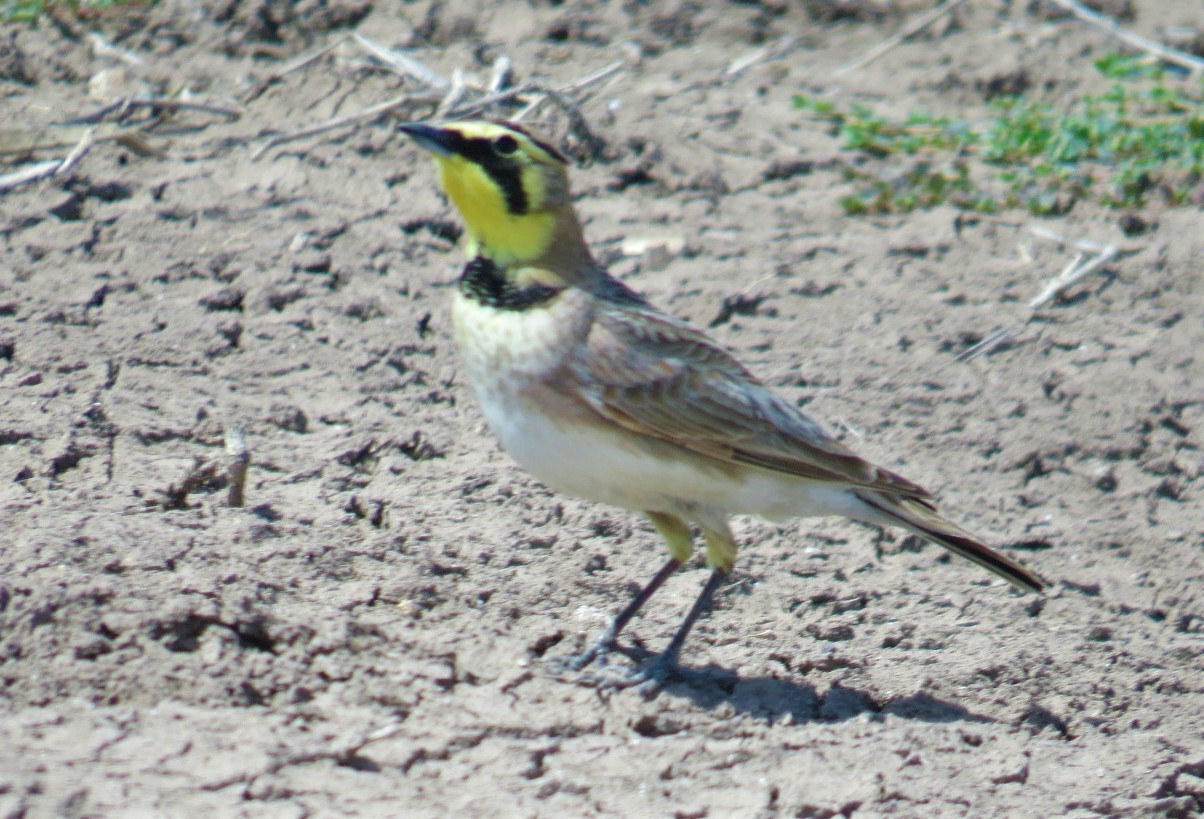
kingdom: Animalia
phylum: Chordata
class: Aves
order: Passeriformes
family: Alaudidae
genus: Eremophila
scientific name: Eremophila alpestris
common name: Horned lark
